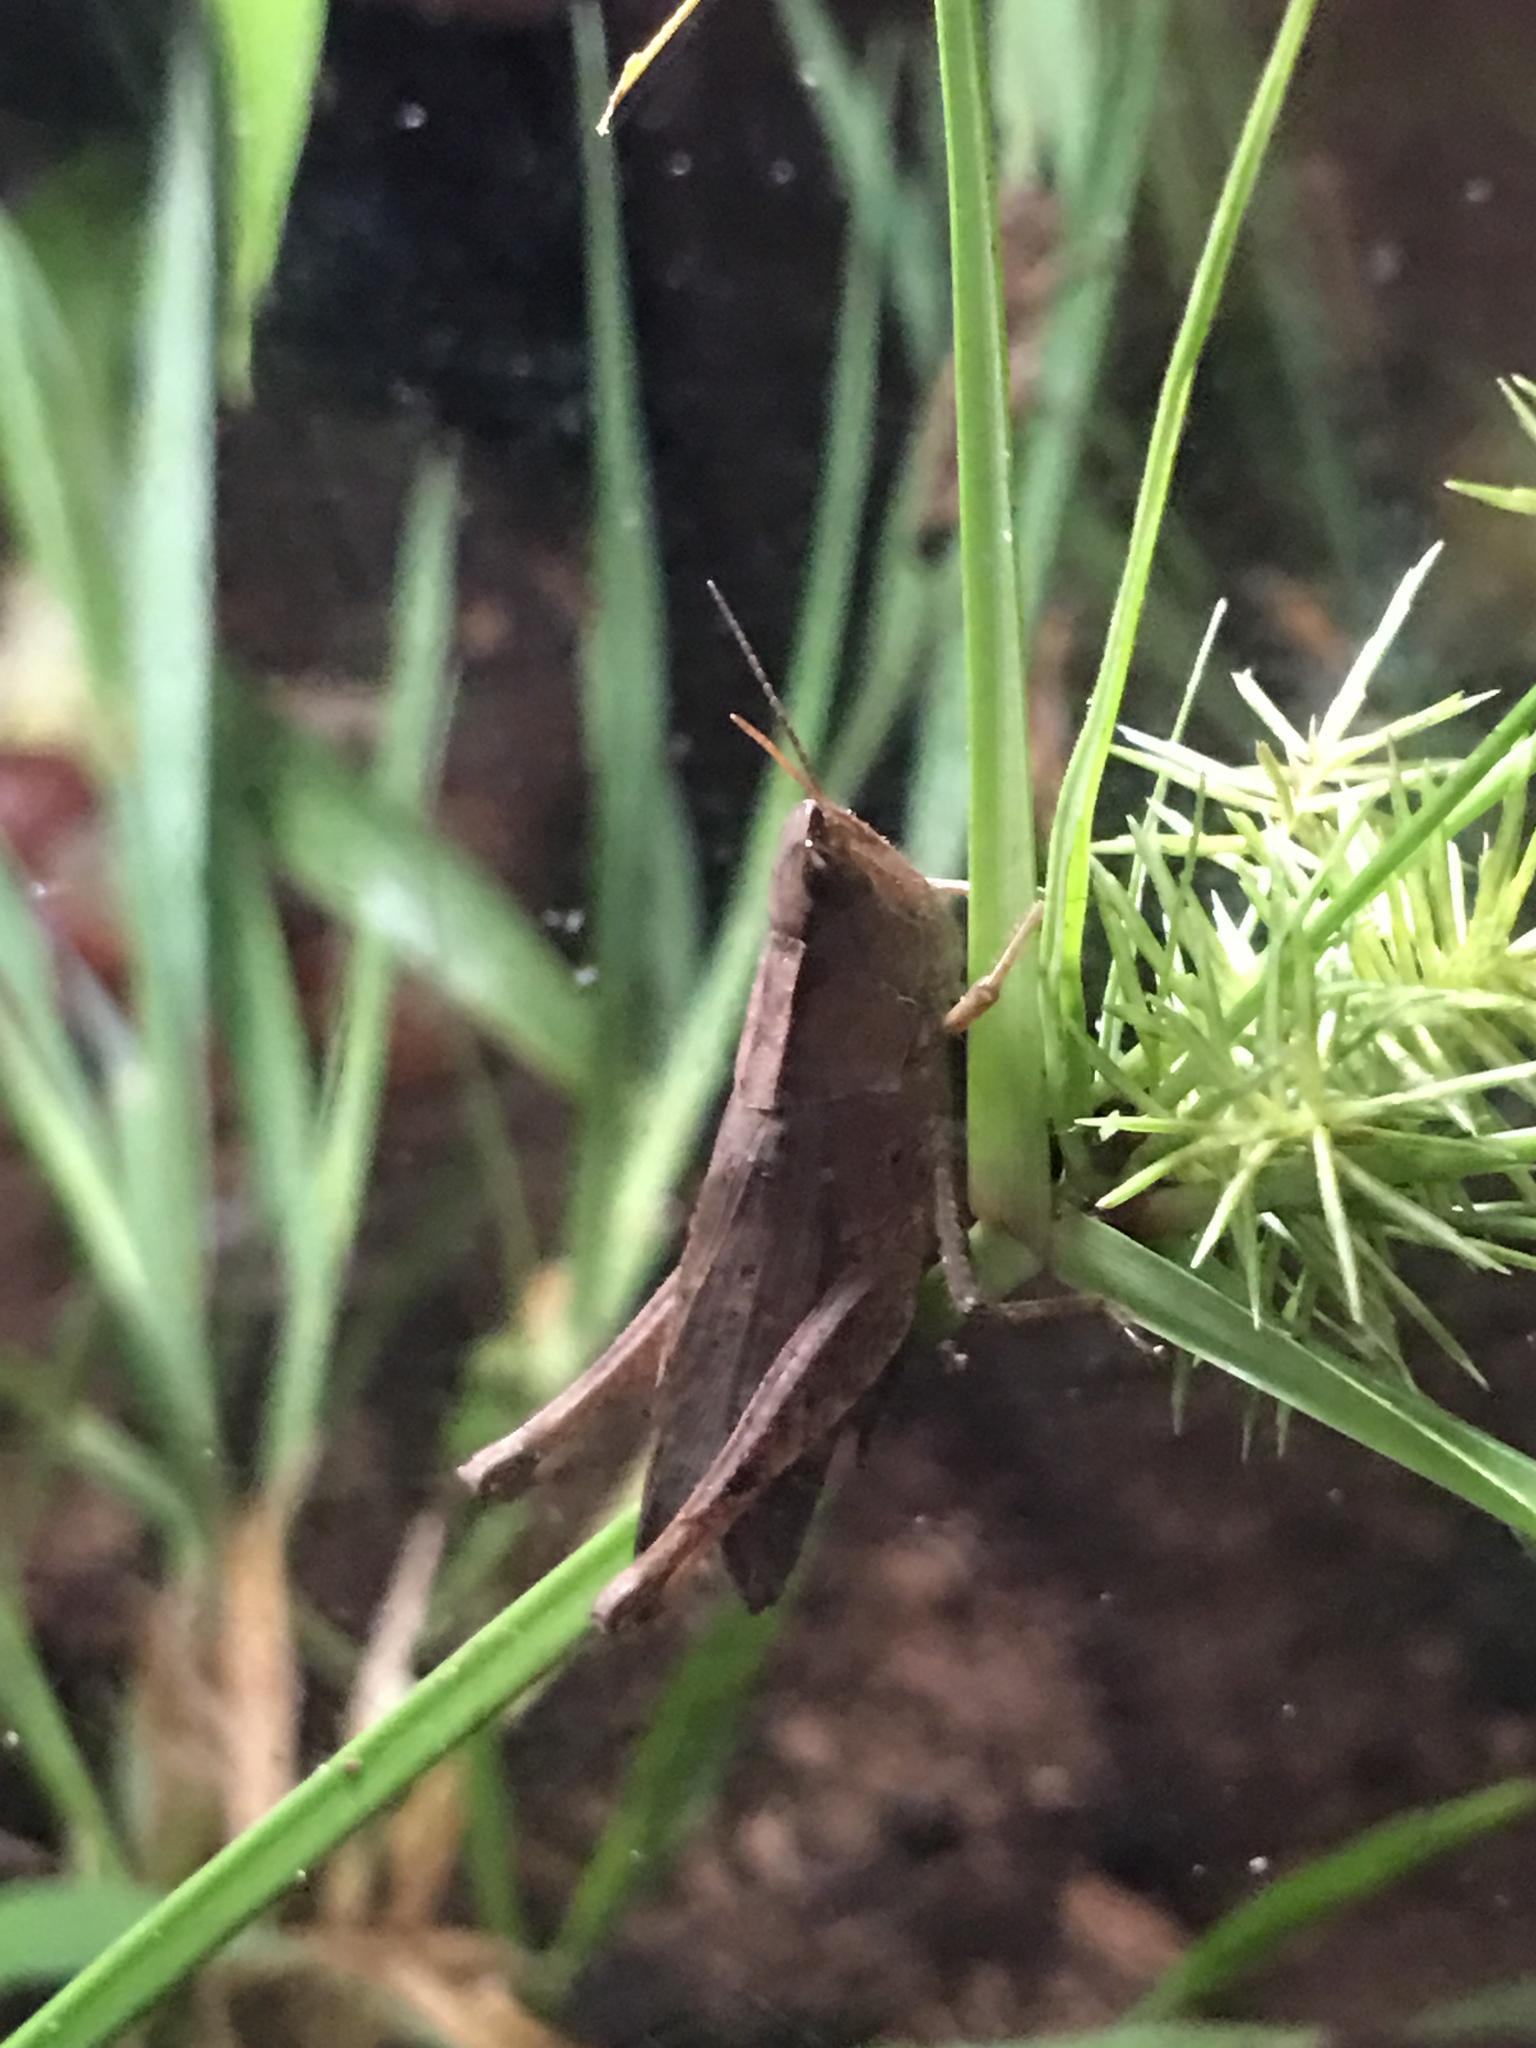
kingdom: Animalia
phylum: Arthropoda
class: Insecta
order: Orthoptera
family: Acrididae
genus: Dichromorpha
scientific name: Dichromorpha viridis
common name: Short-winged green grasshopper
